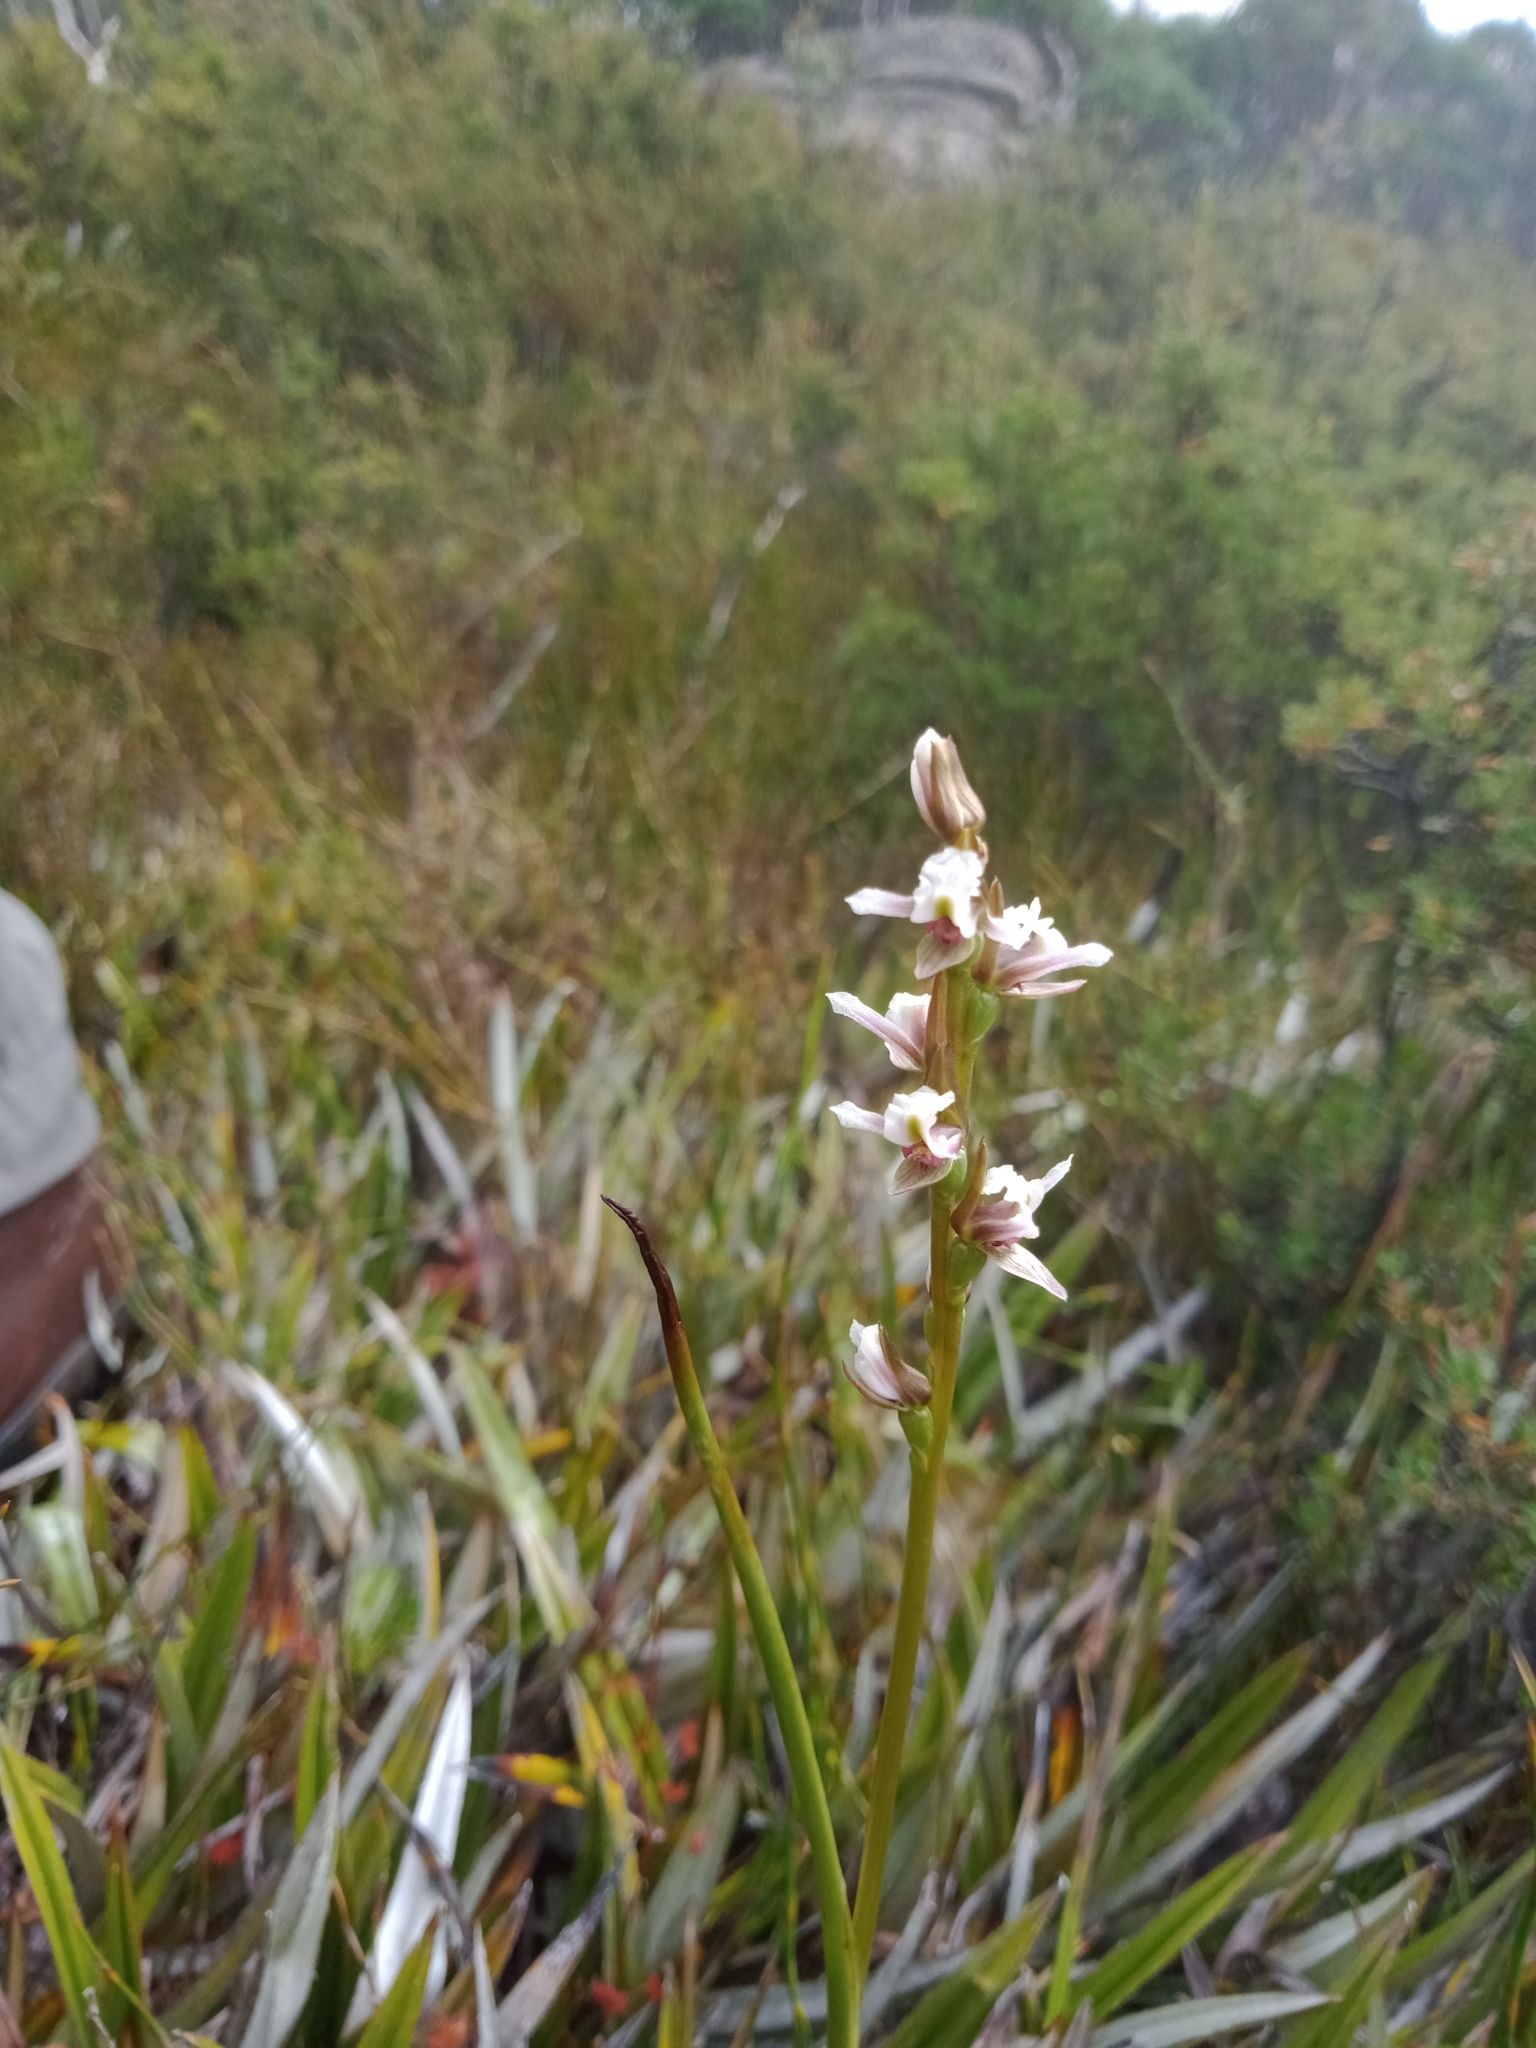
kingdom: Plantae
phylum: Tracheophyta
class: Liliopsida
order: Asparagales
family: Orchidaceae
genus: Prasophyllum
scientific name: Prasophyllum suttonii
